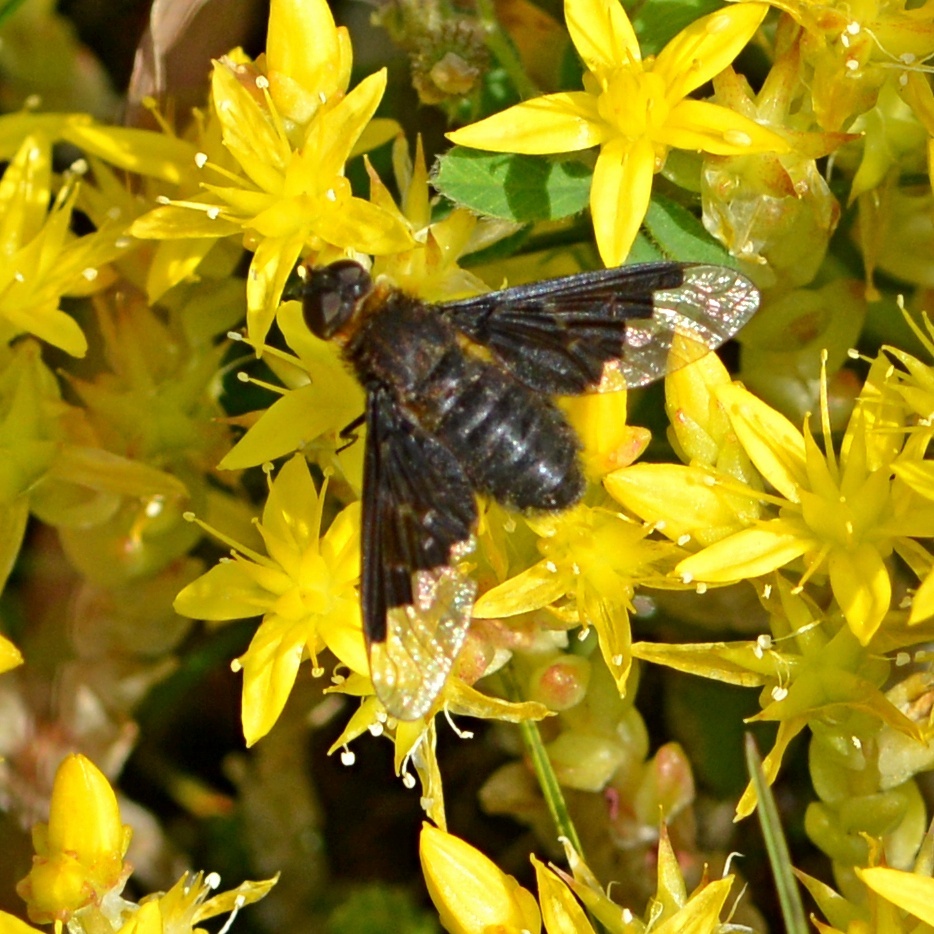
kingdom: Animalia
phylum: Arthropoda
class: Insecta
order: Diptera
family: Bombyliidae
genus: Hemipenthes
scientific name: Hemipenthes morio
